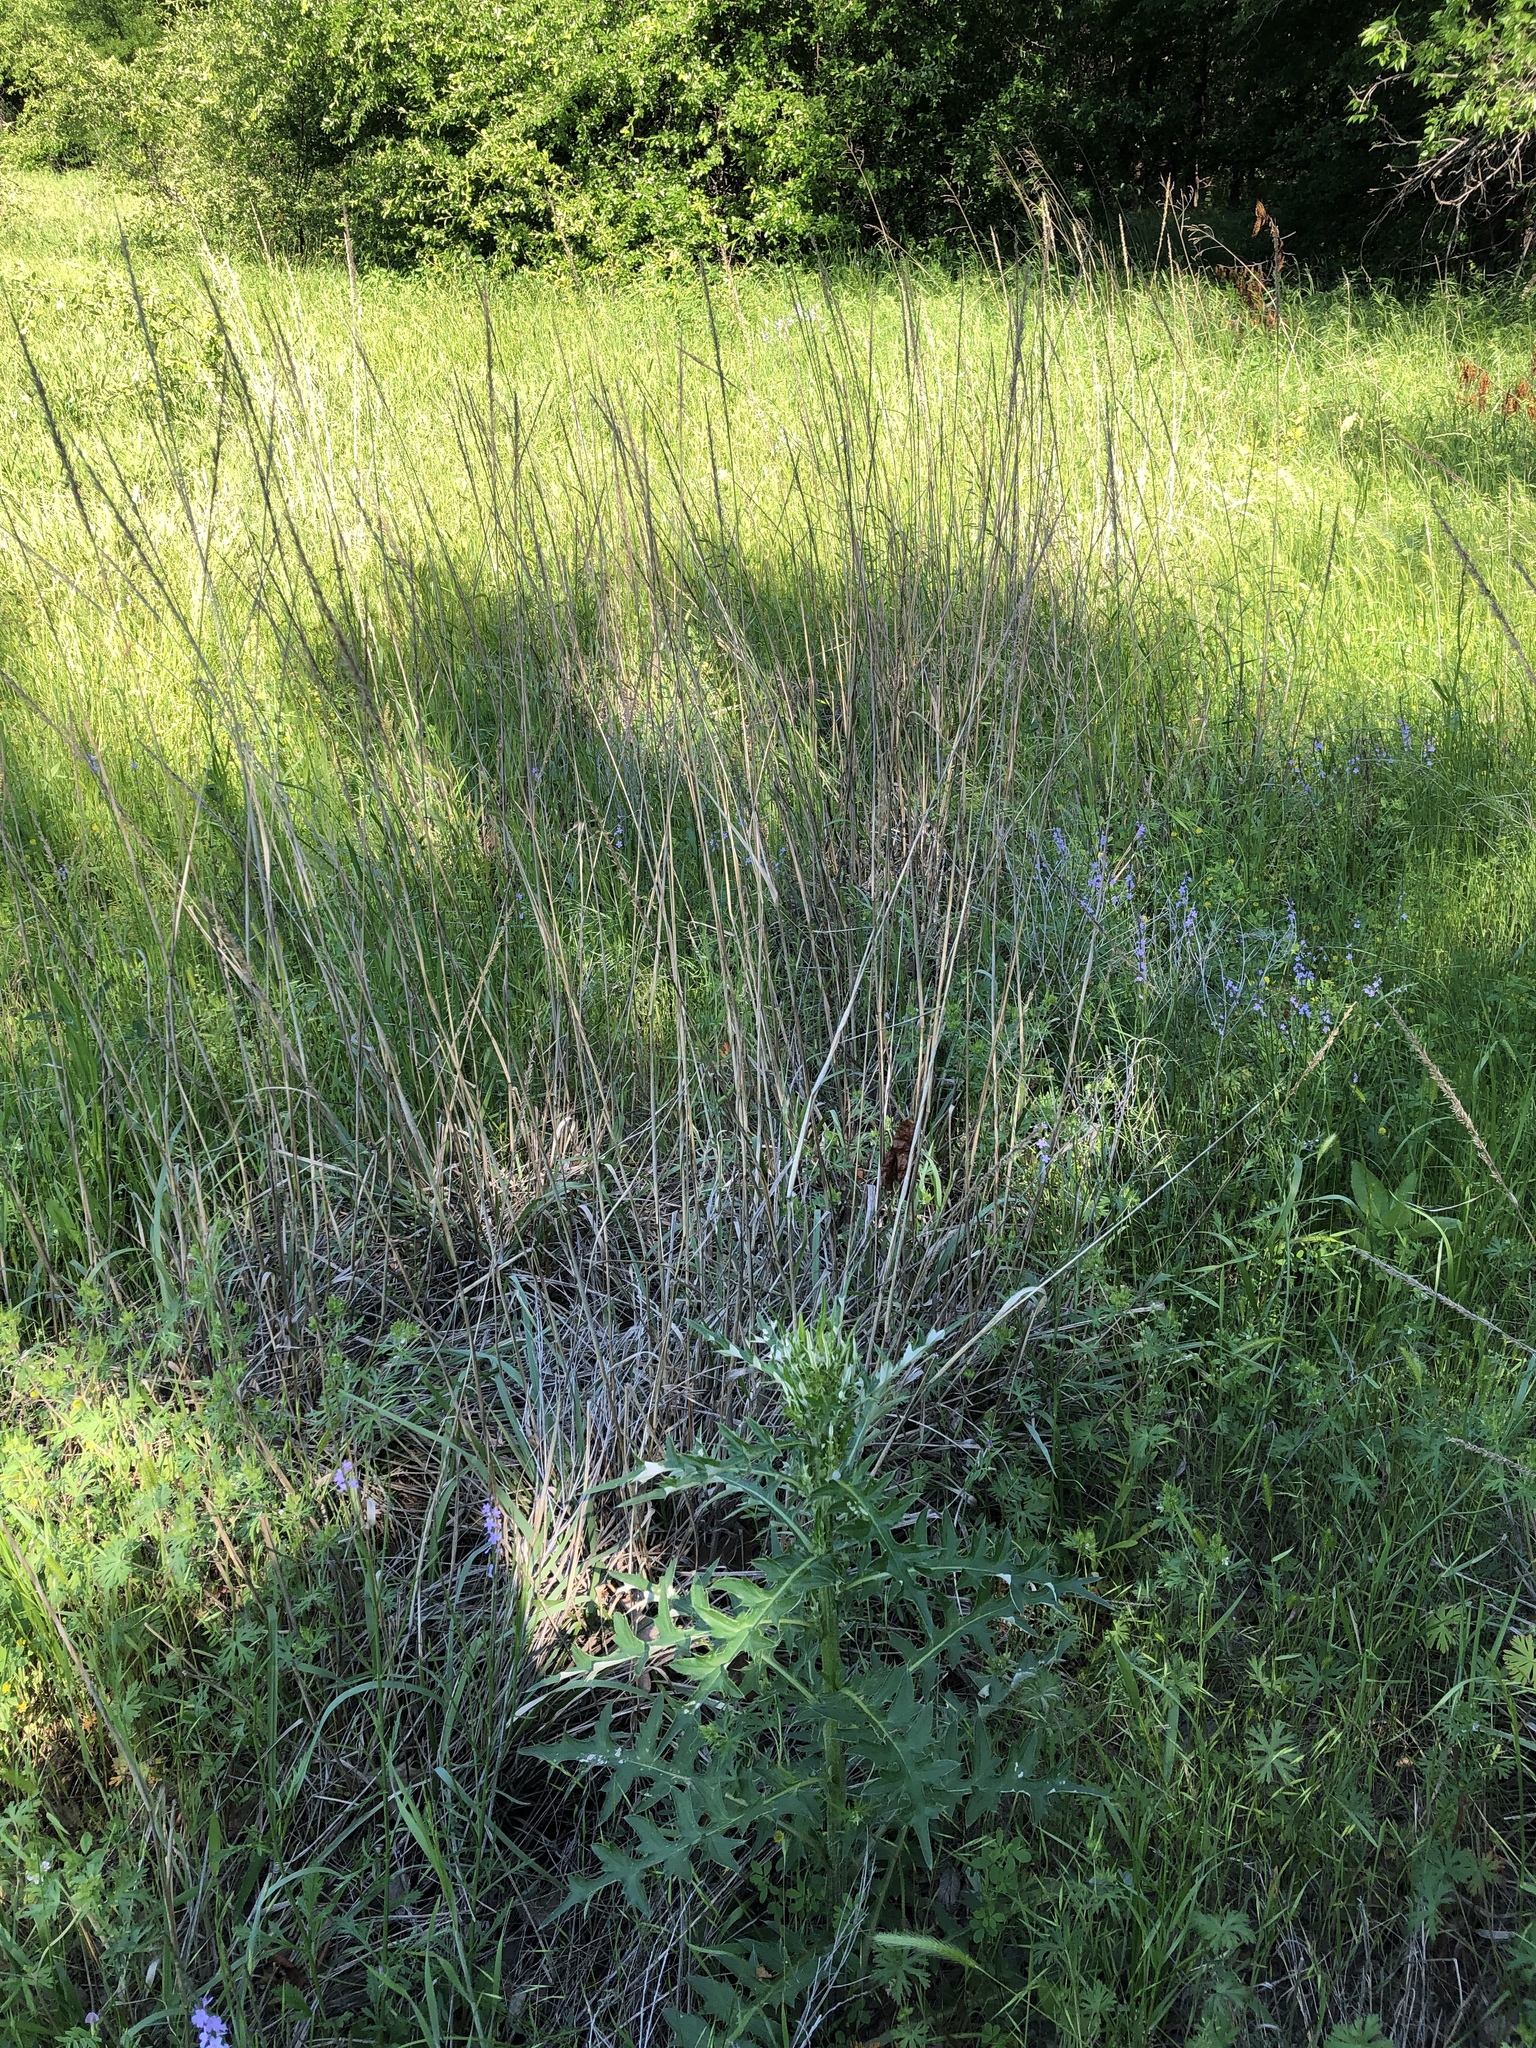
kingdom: Plantae
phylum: Tracheophyta
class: Liliopsida
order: Poales
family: Poaceae
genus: Tridens
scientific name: Tridens strictus
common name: Long-spike tridens
